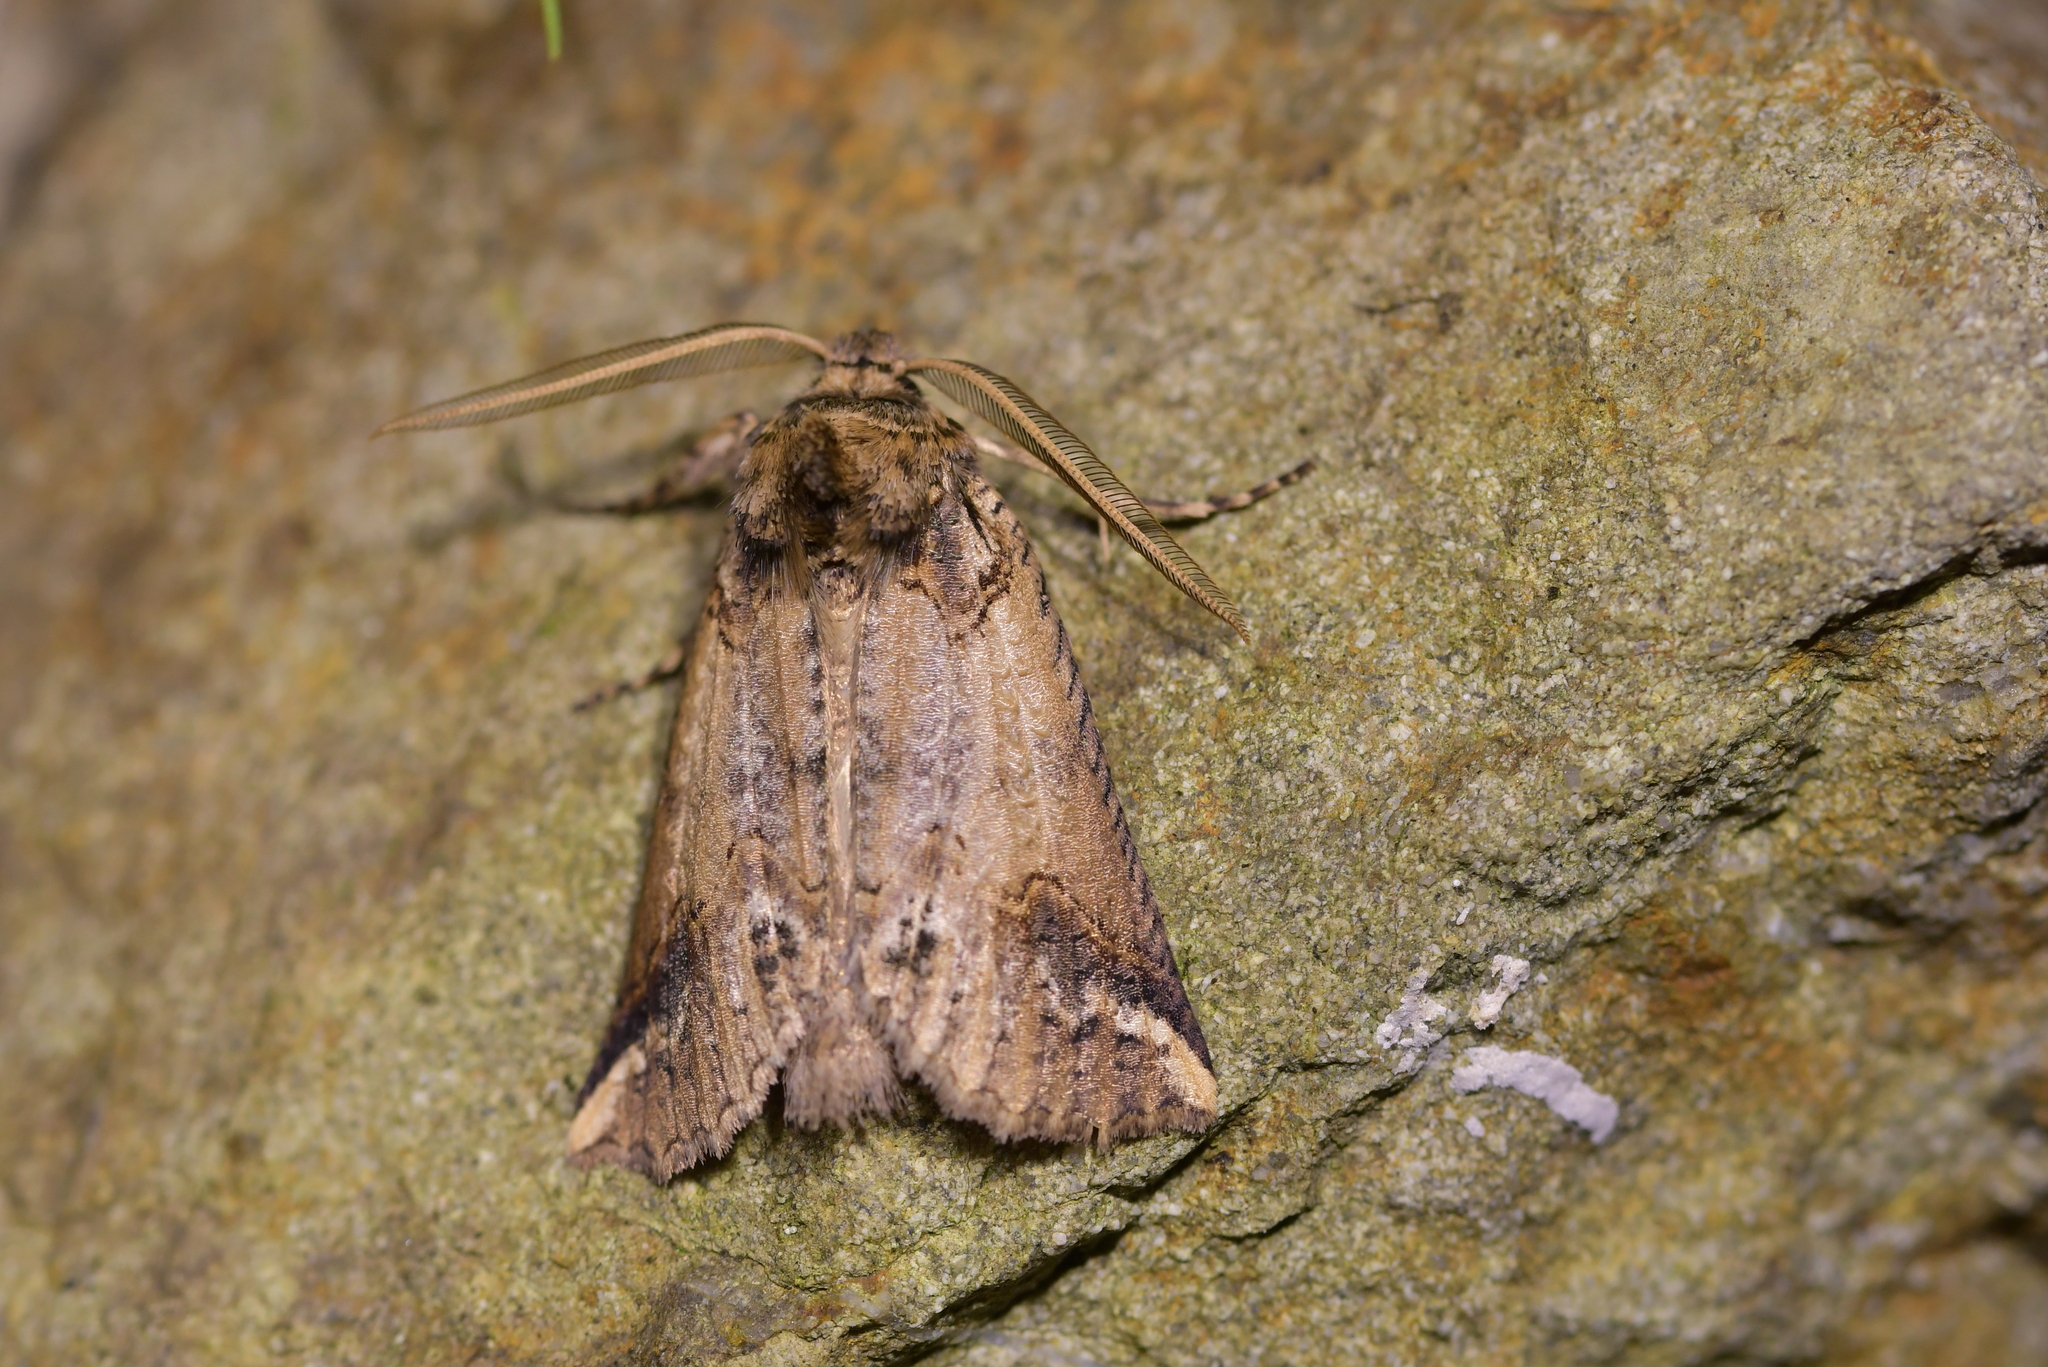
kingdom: Animalia
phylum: Arthropoda
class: Insecta
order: Lepidoptera
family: Geometridae
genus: Declana
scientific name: Declana
